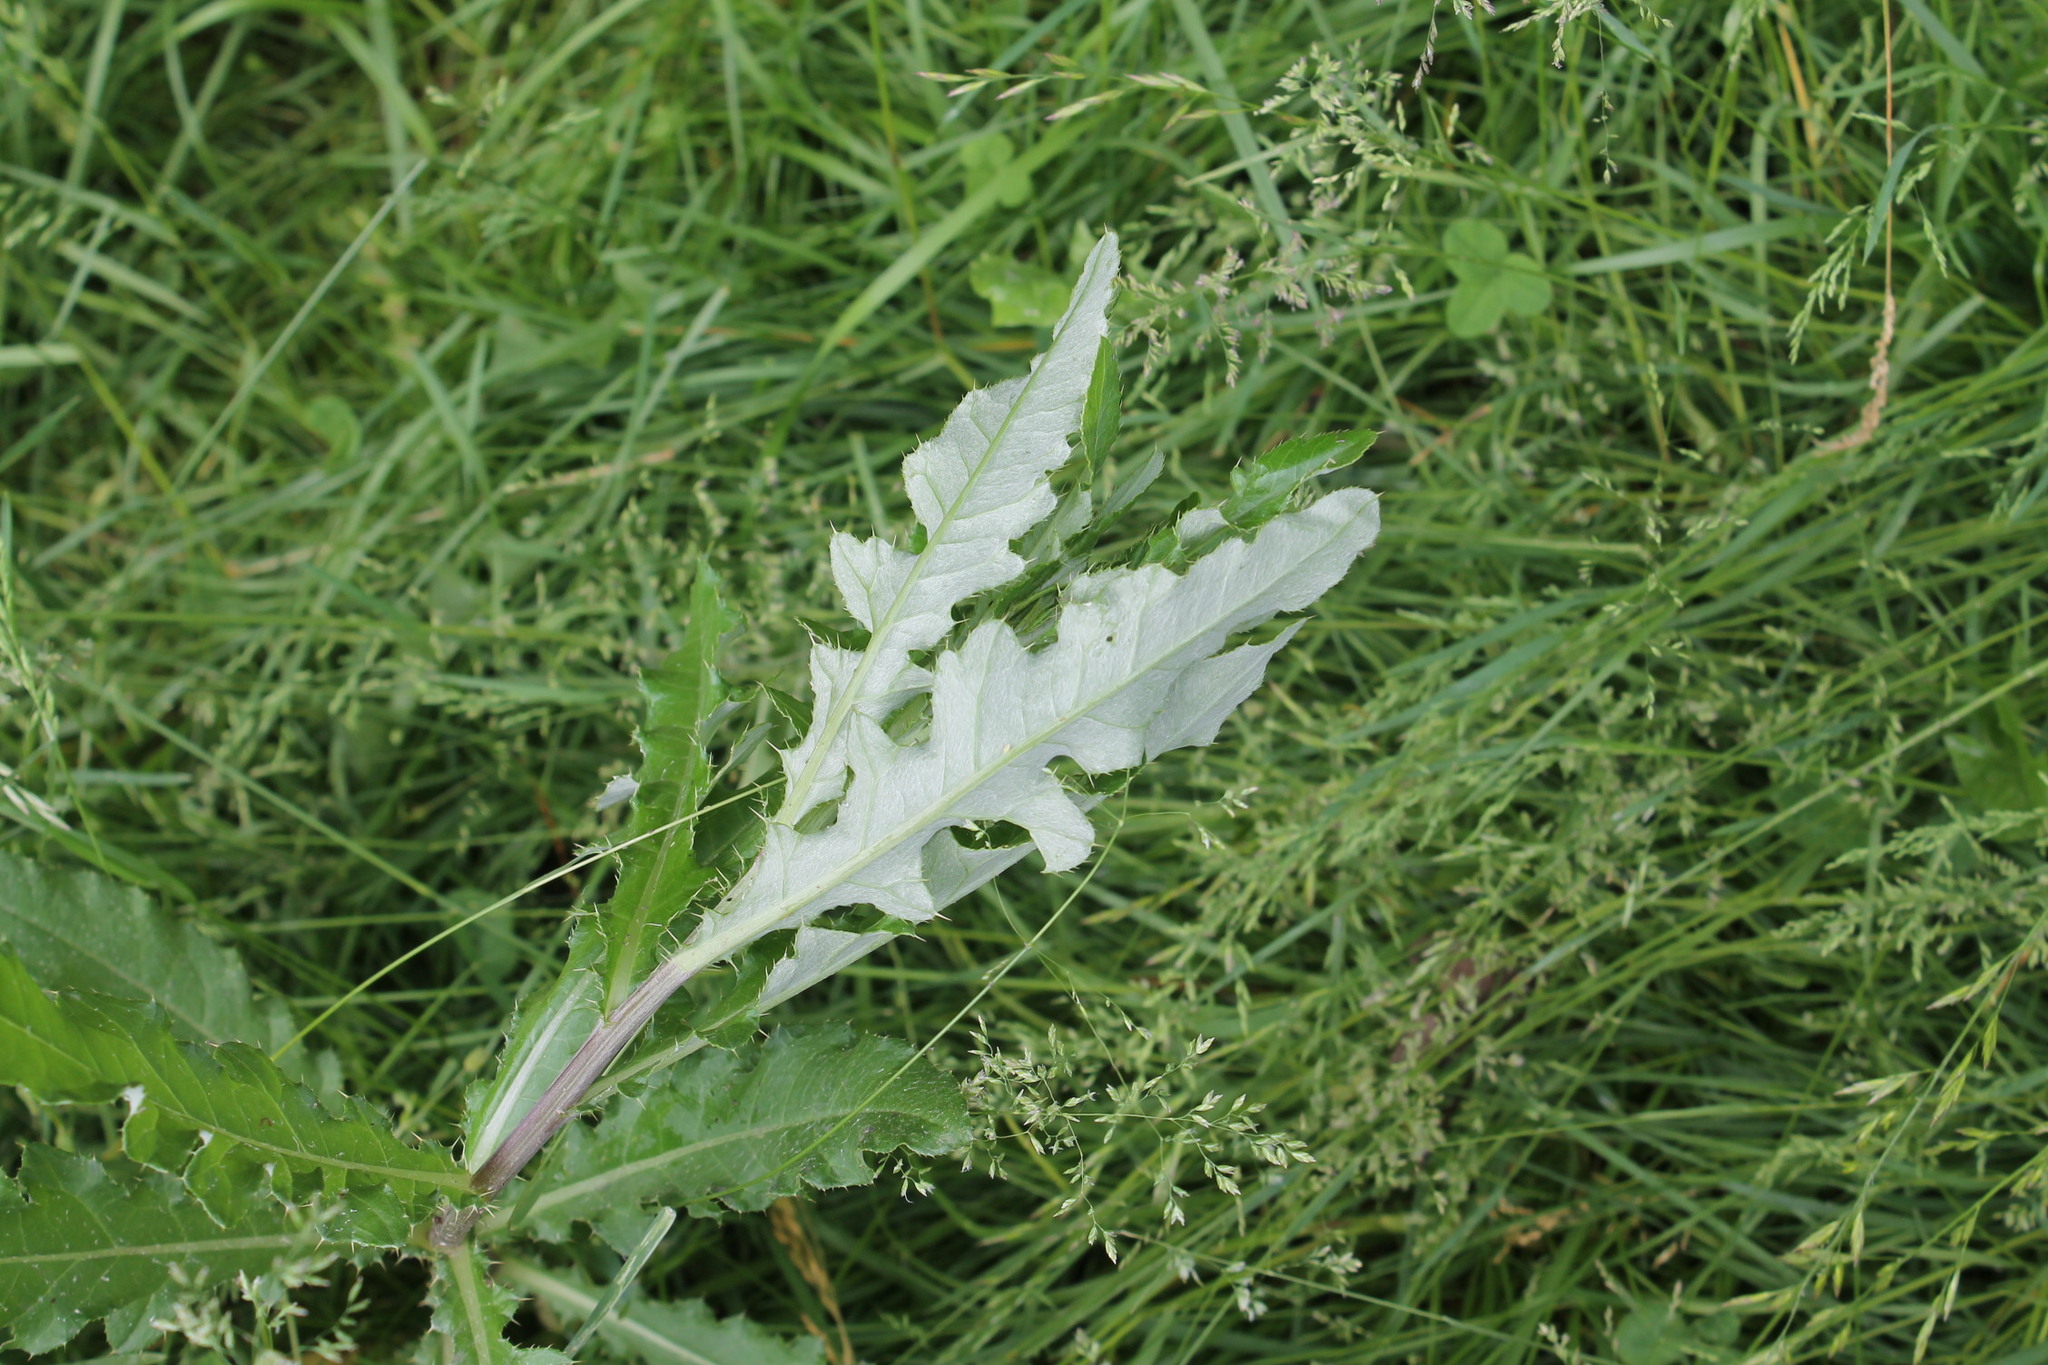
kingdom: Plantae
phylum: Tracheophyta
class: Magnoliopsida
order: Asterales
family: Asteraceae
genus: Cirsium
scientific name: Cirsium arvense
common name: Creeping thistle
